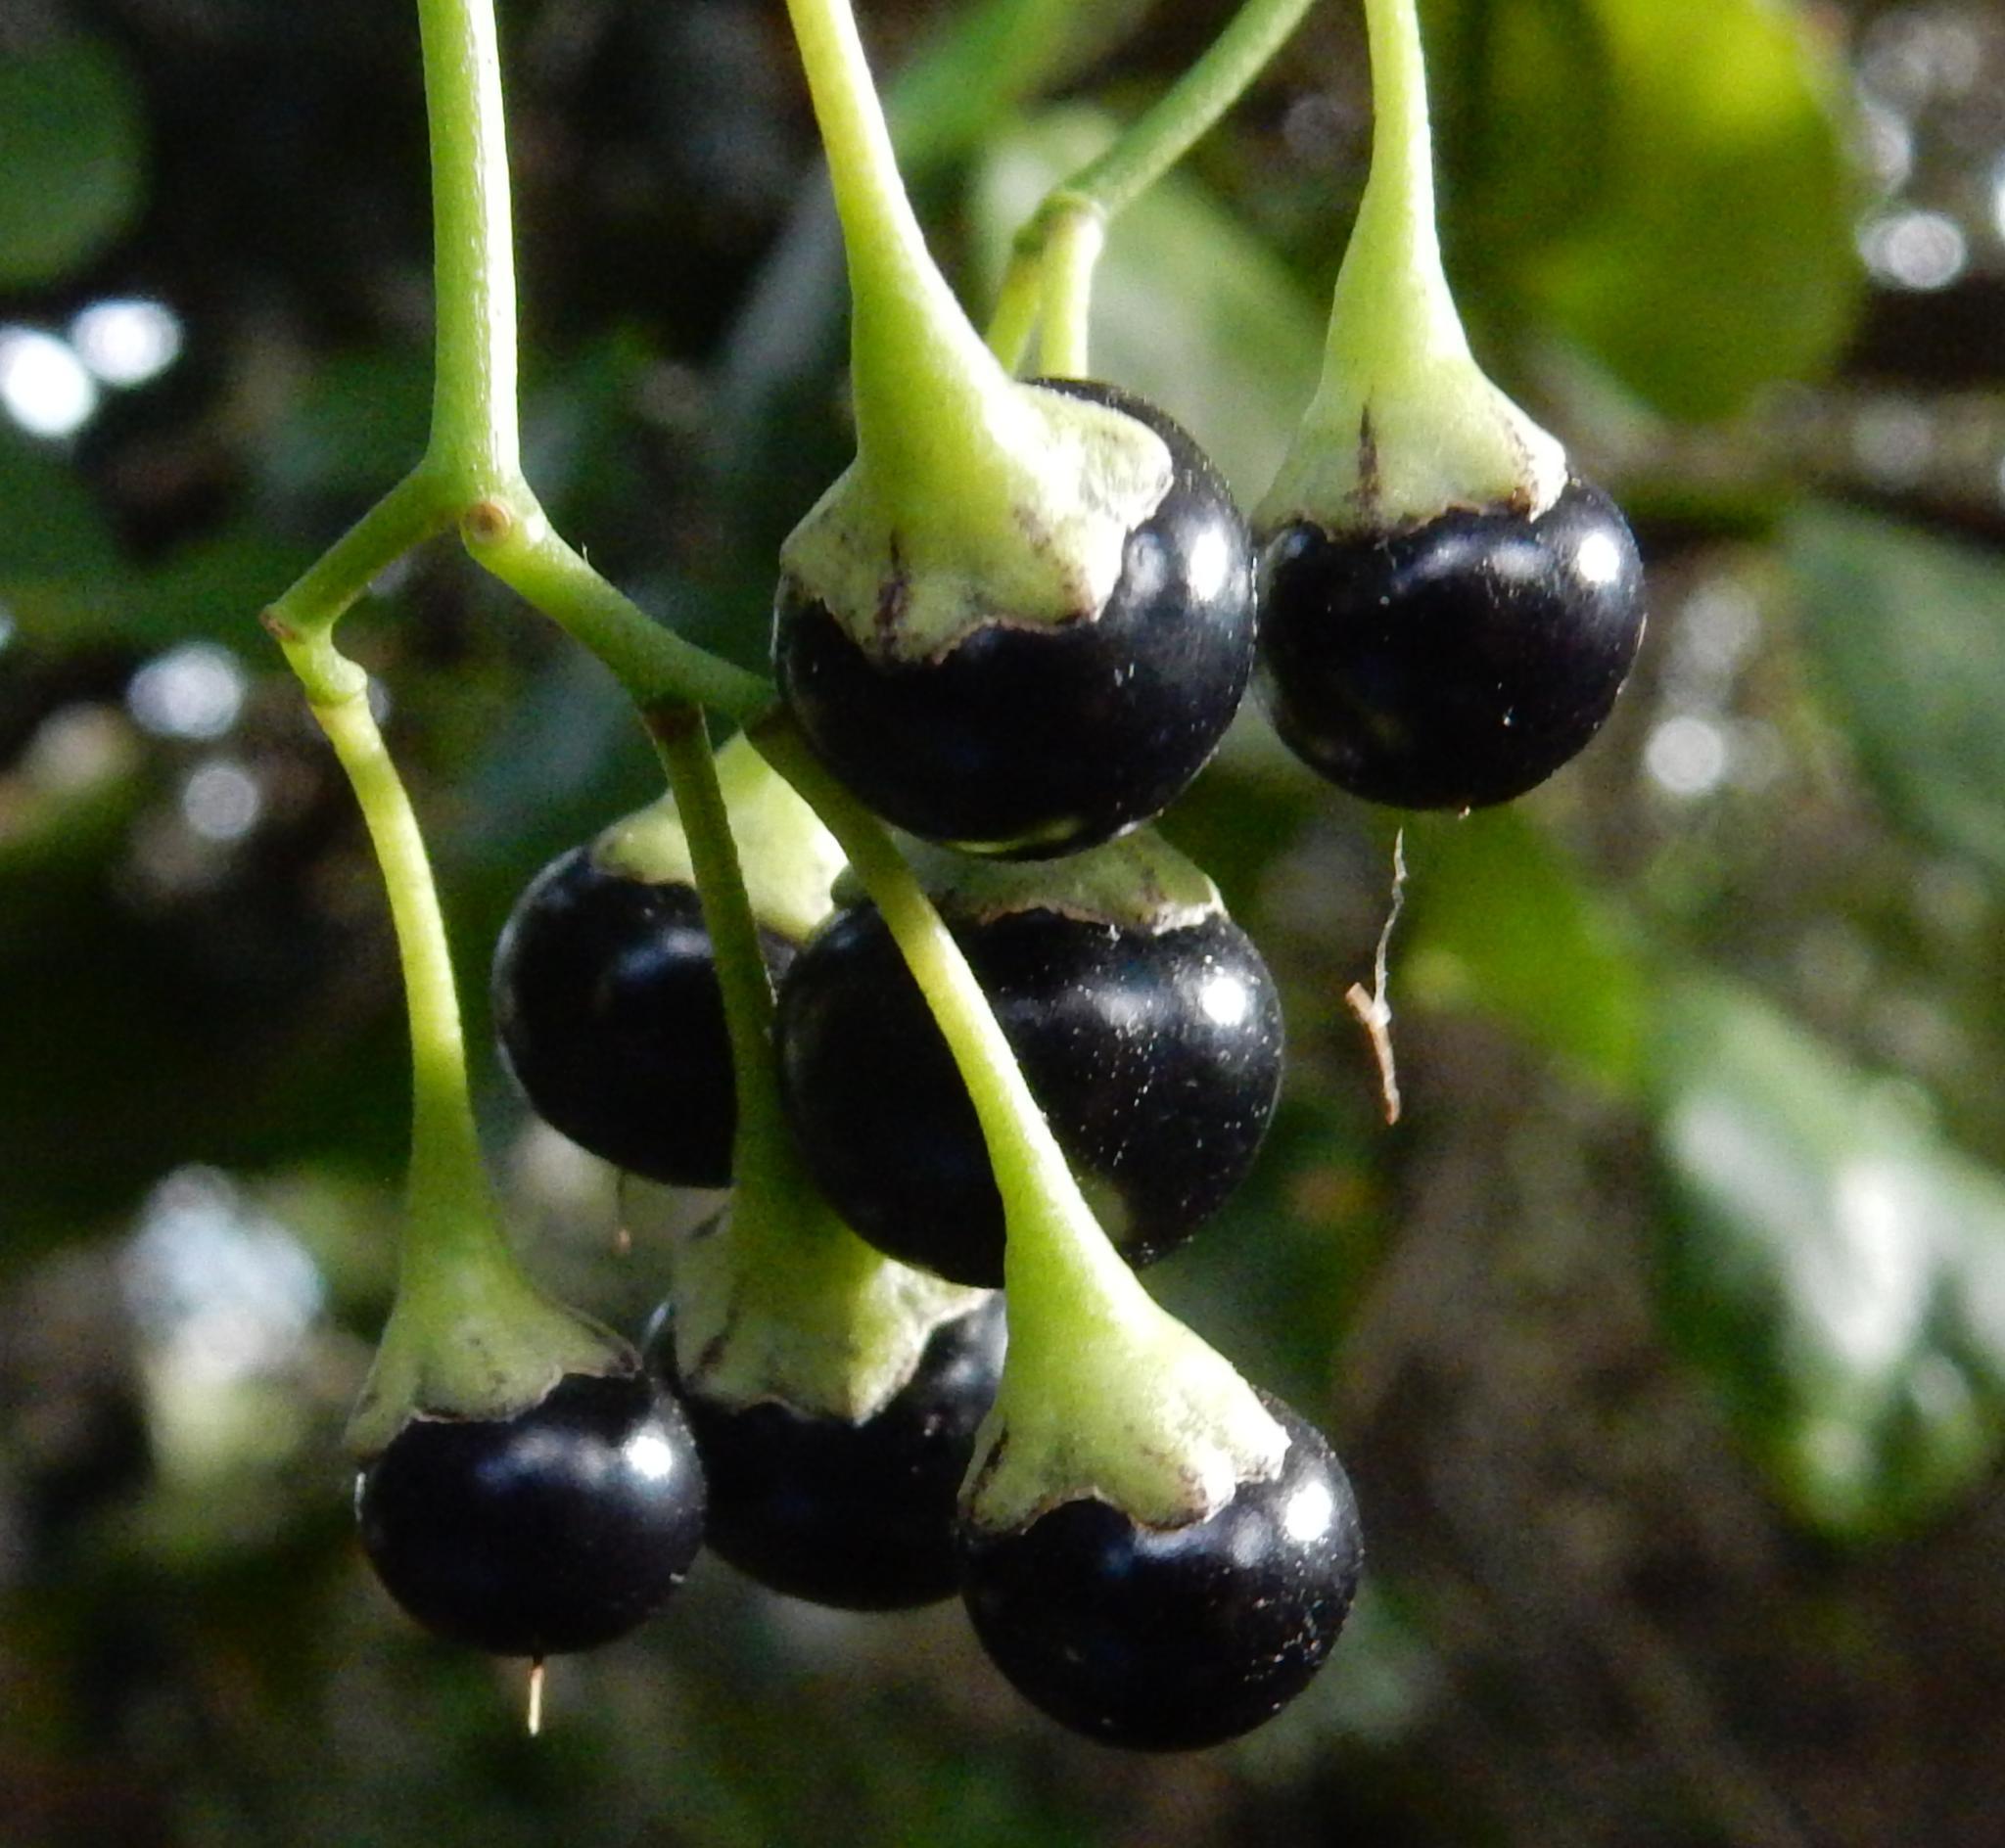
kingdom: Plantae
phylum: Tracheophyta
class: Magnoliopsida
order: Solanales
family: Solanaceae
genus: Solanum
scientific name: Solanum africanum
